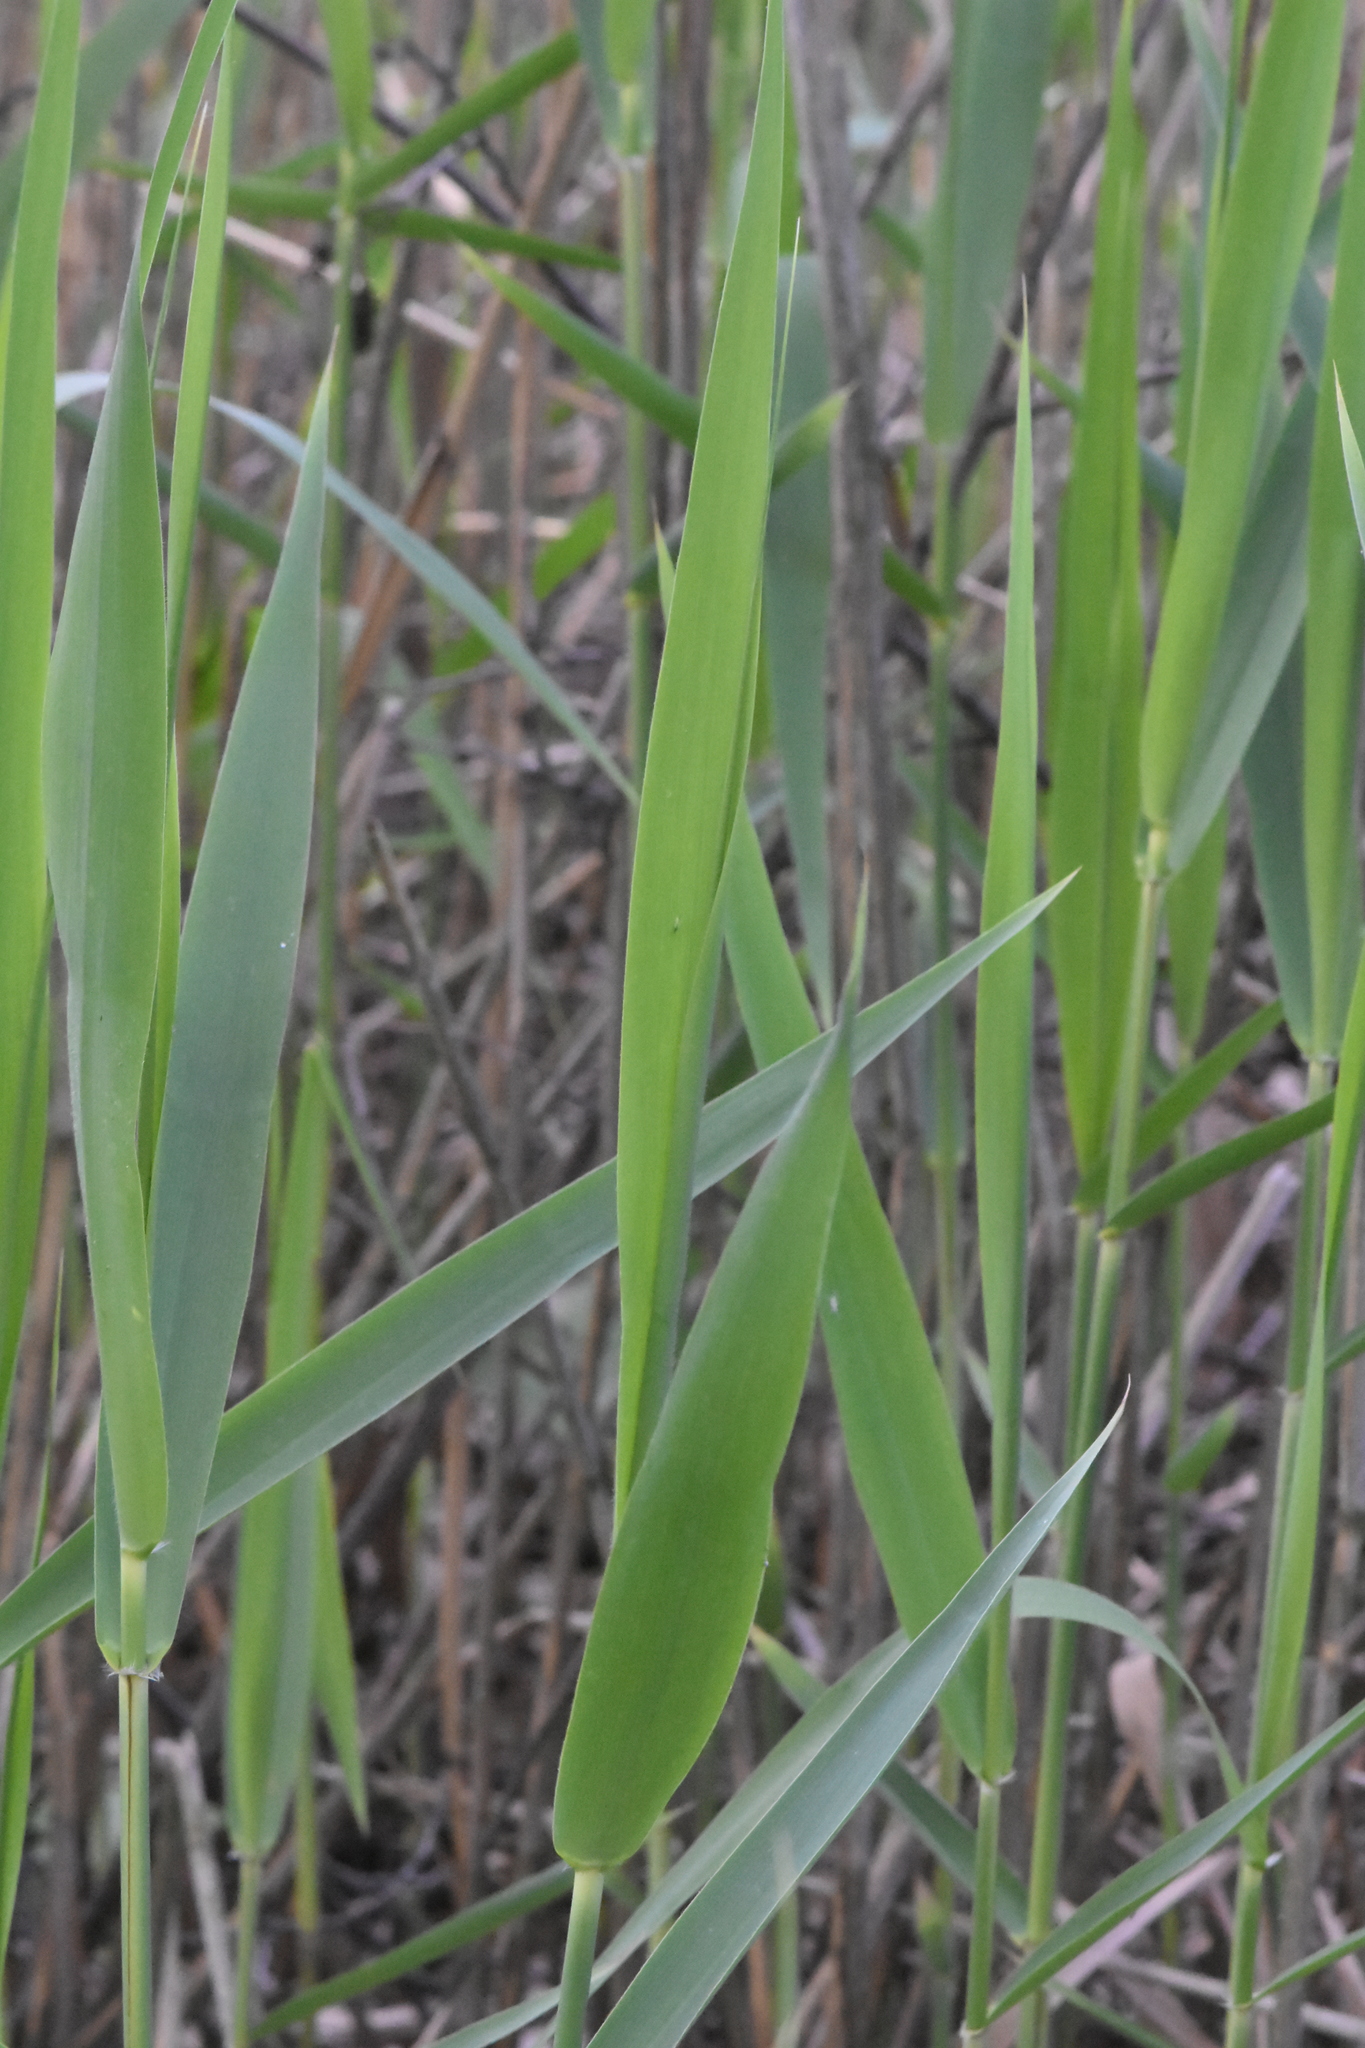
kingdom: Plantae
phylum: Tracheophyta
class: Liliopsida
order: Poales
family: Poaceae
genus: Phragmites
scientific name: Phragmites australis
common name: Common reed
